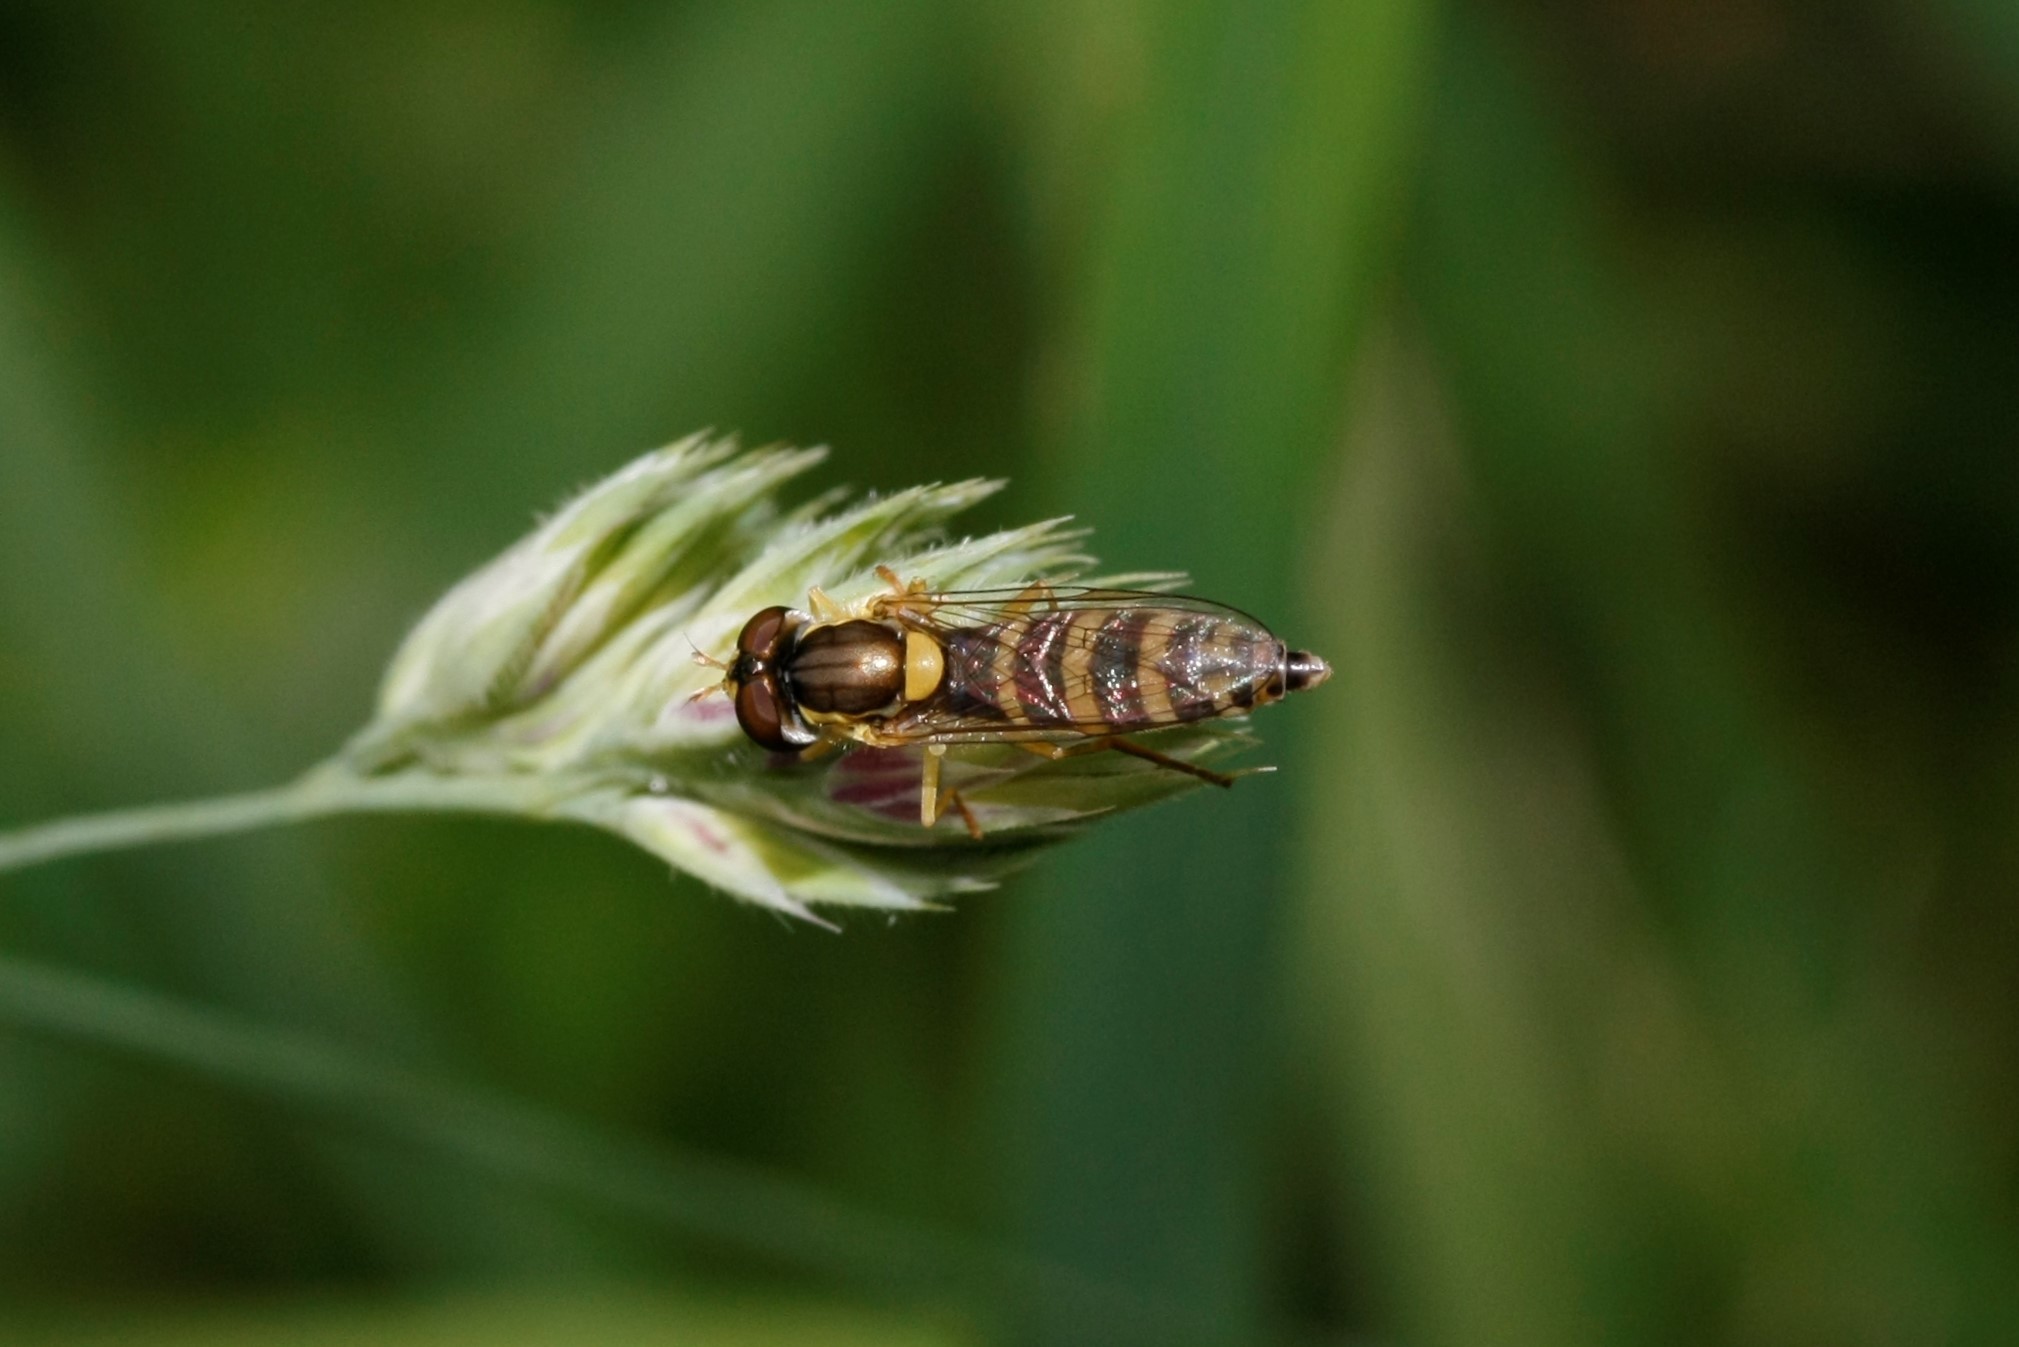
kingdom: Animalia
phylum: Arthropoda
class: Insecta
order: Diptera
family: Syrphidae
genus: Sphaerophoria
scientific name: Sphaerophoria
